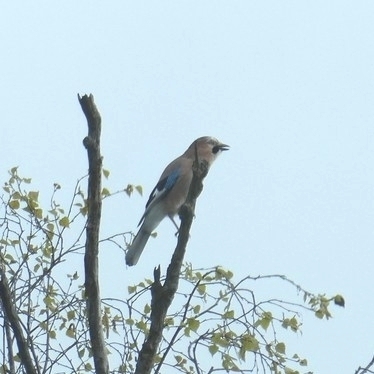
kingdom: Animalia
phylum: Chordata
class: Aves
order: Passeriformes
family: Corvidae
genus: Garrulus
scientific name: Garrulus glandarius
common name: Eurasian jay
